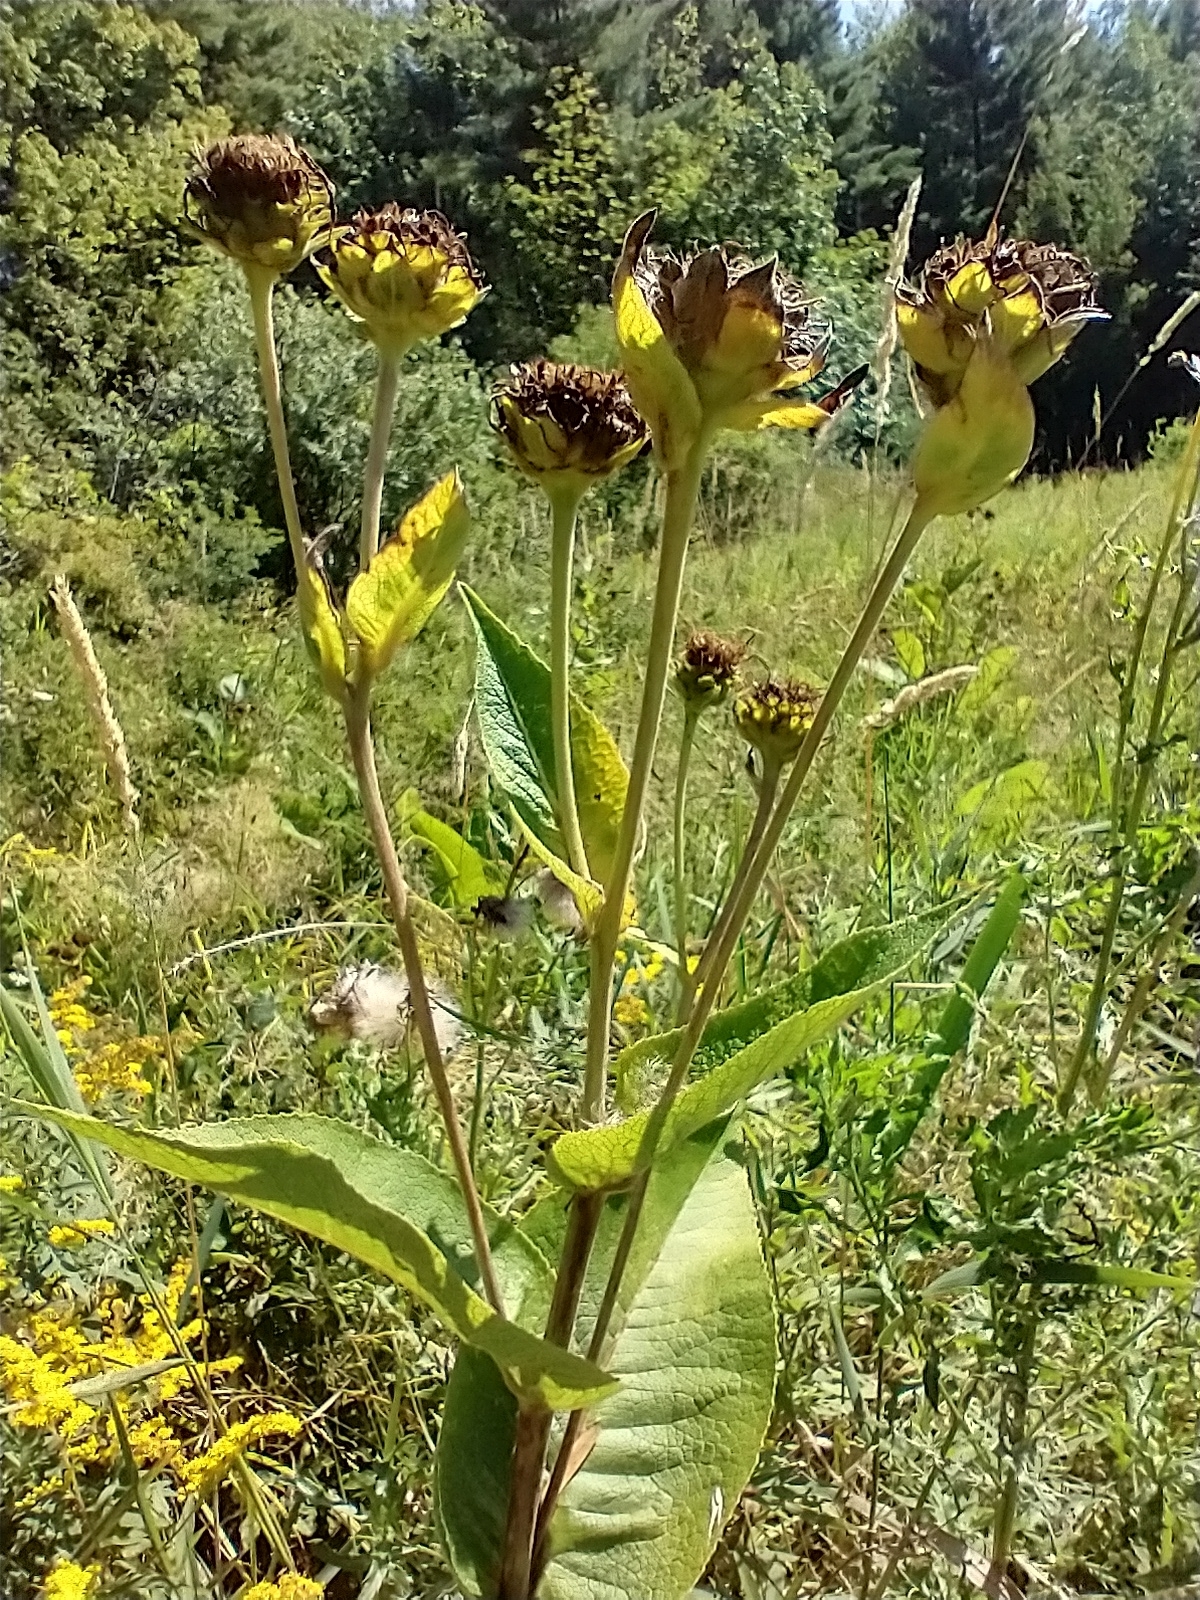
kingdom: Plantae
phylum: Tracheophyta
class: Magnoliopsida
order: Asterales
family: Asteraceae
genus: Inula
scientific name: Inula helenium
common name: Elecampane
